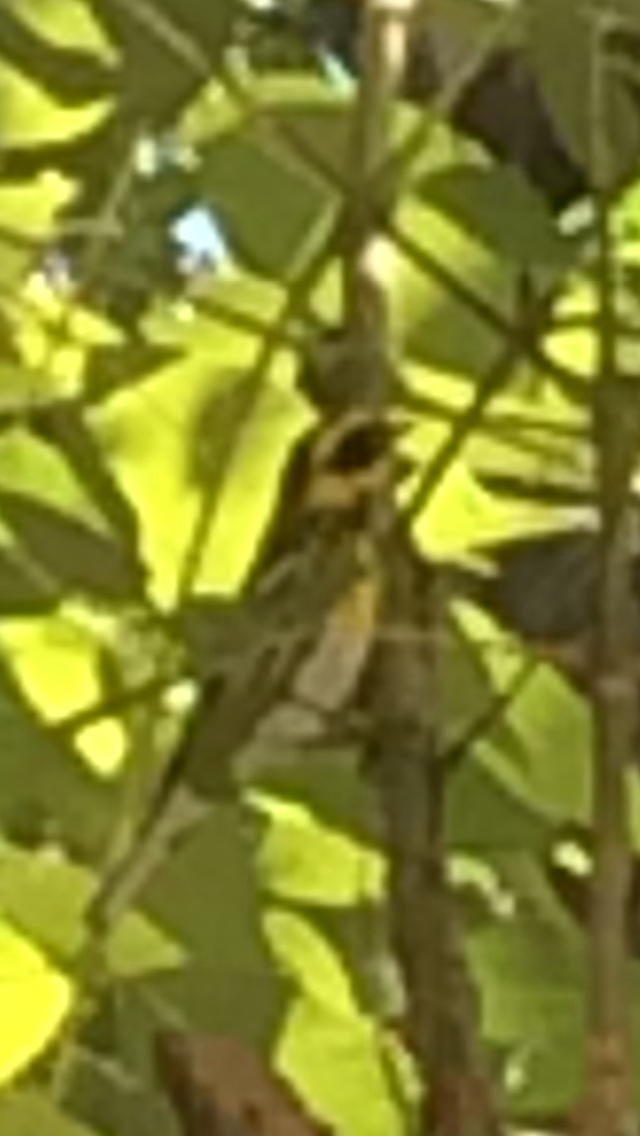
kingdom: Animalia
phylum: Chordata
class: Aves
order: Passeriformes
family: Parulidae
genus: Setophaga
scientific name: Setophaga townsendi
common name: Townsend's warbler
